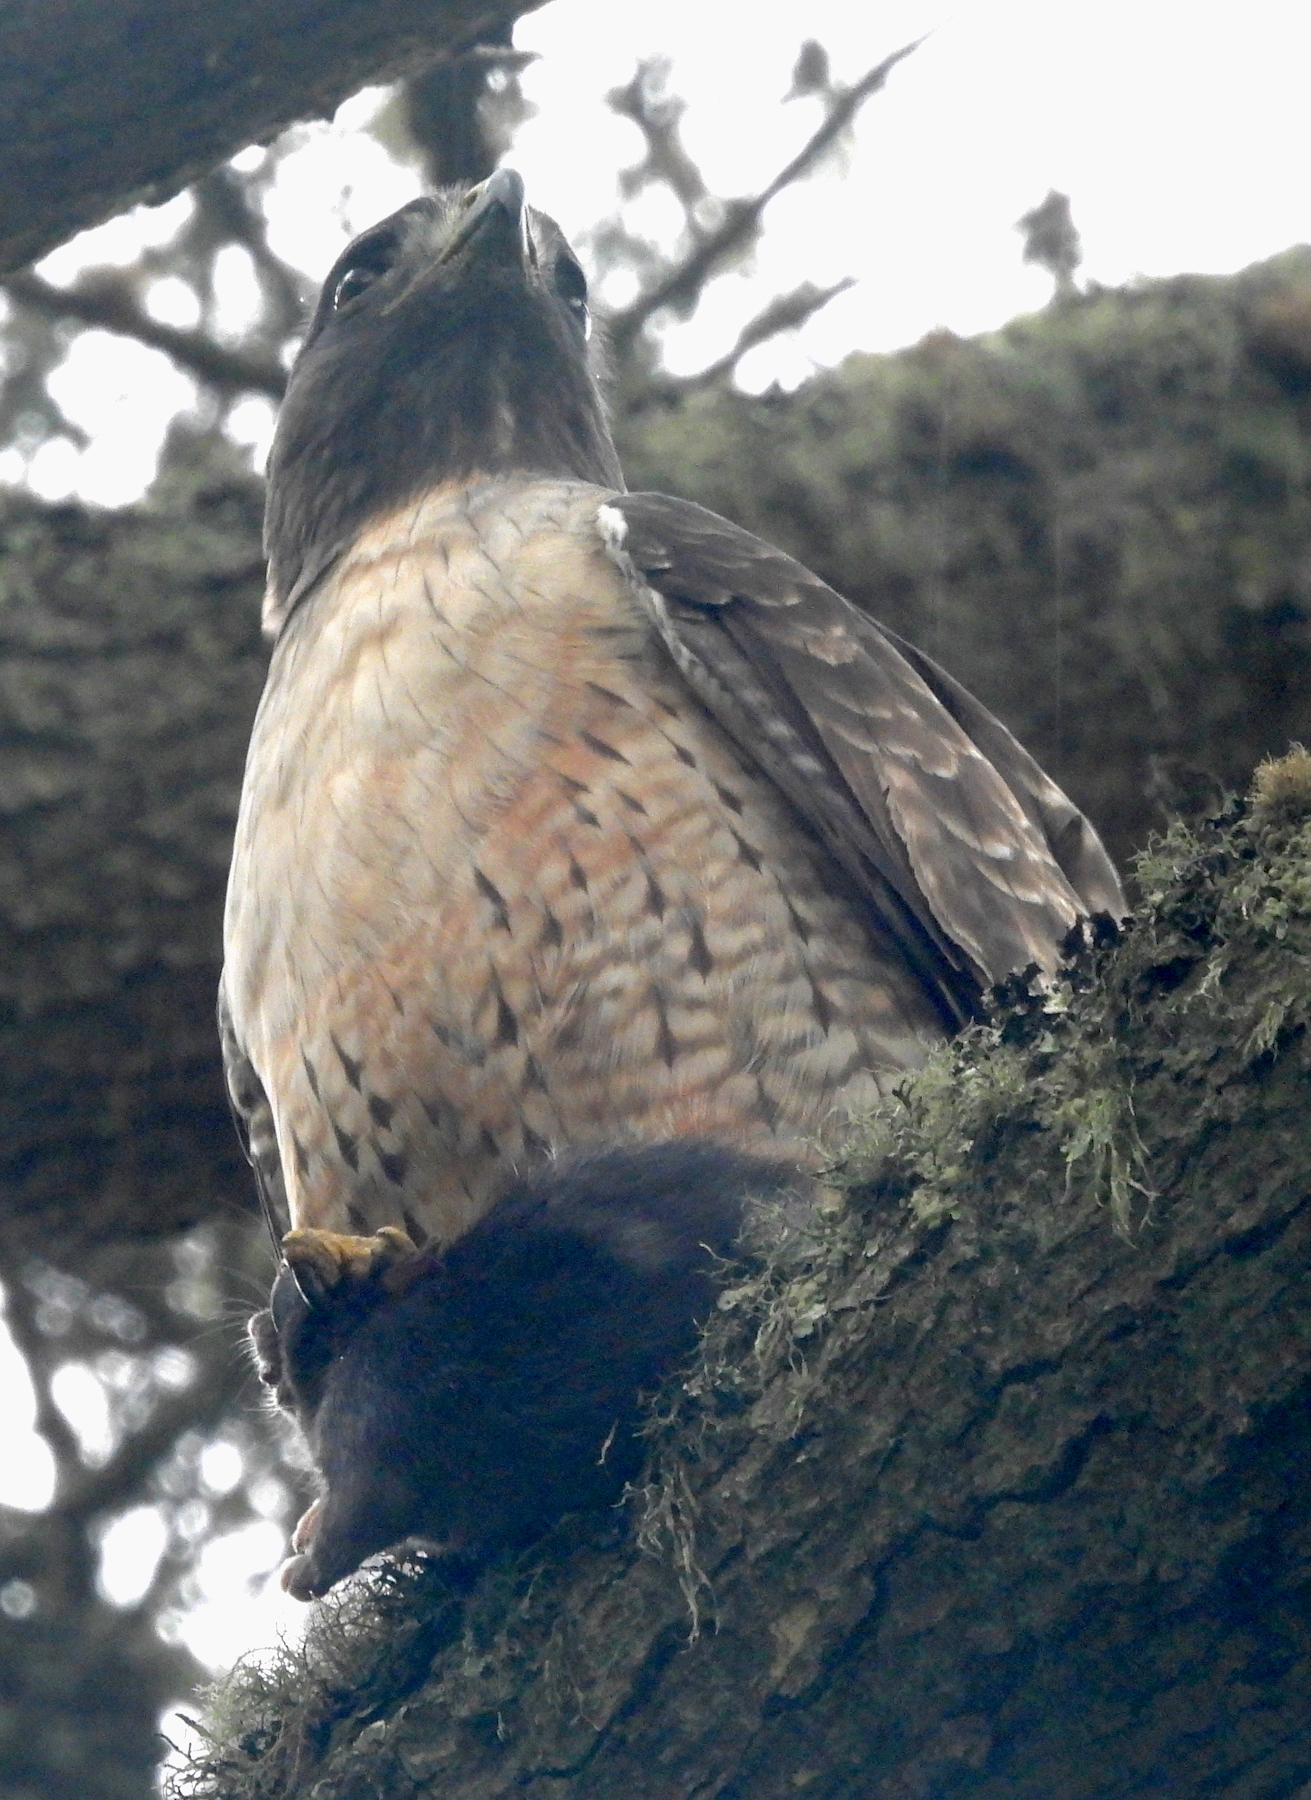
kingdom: Animalia
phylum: Chordata
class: Aves
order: Accipitriformes
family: Accipitridae
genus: Buteo
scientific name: Buteo jamaicensis
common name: Red-tailed hawk
